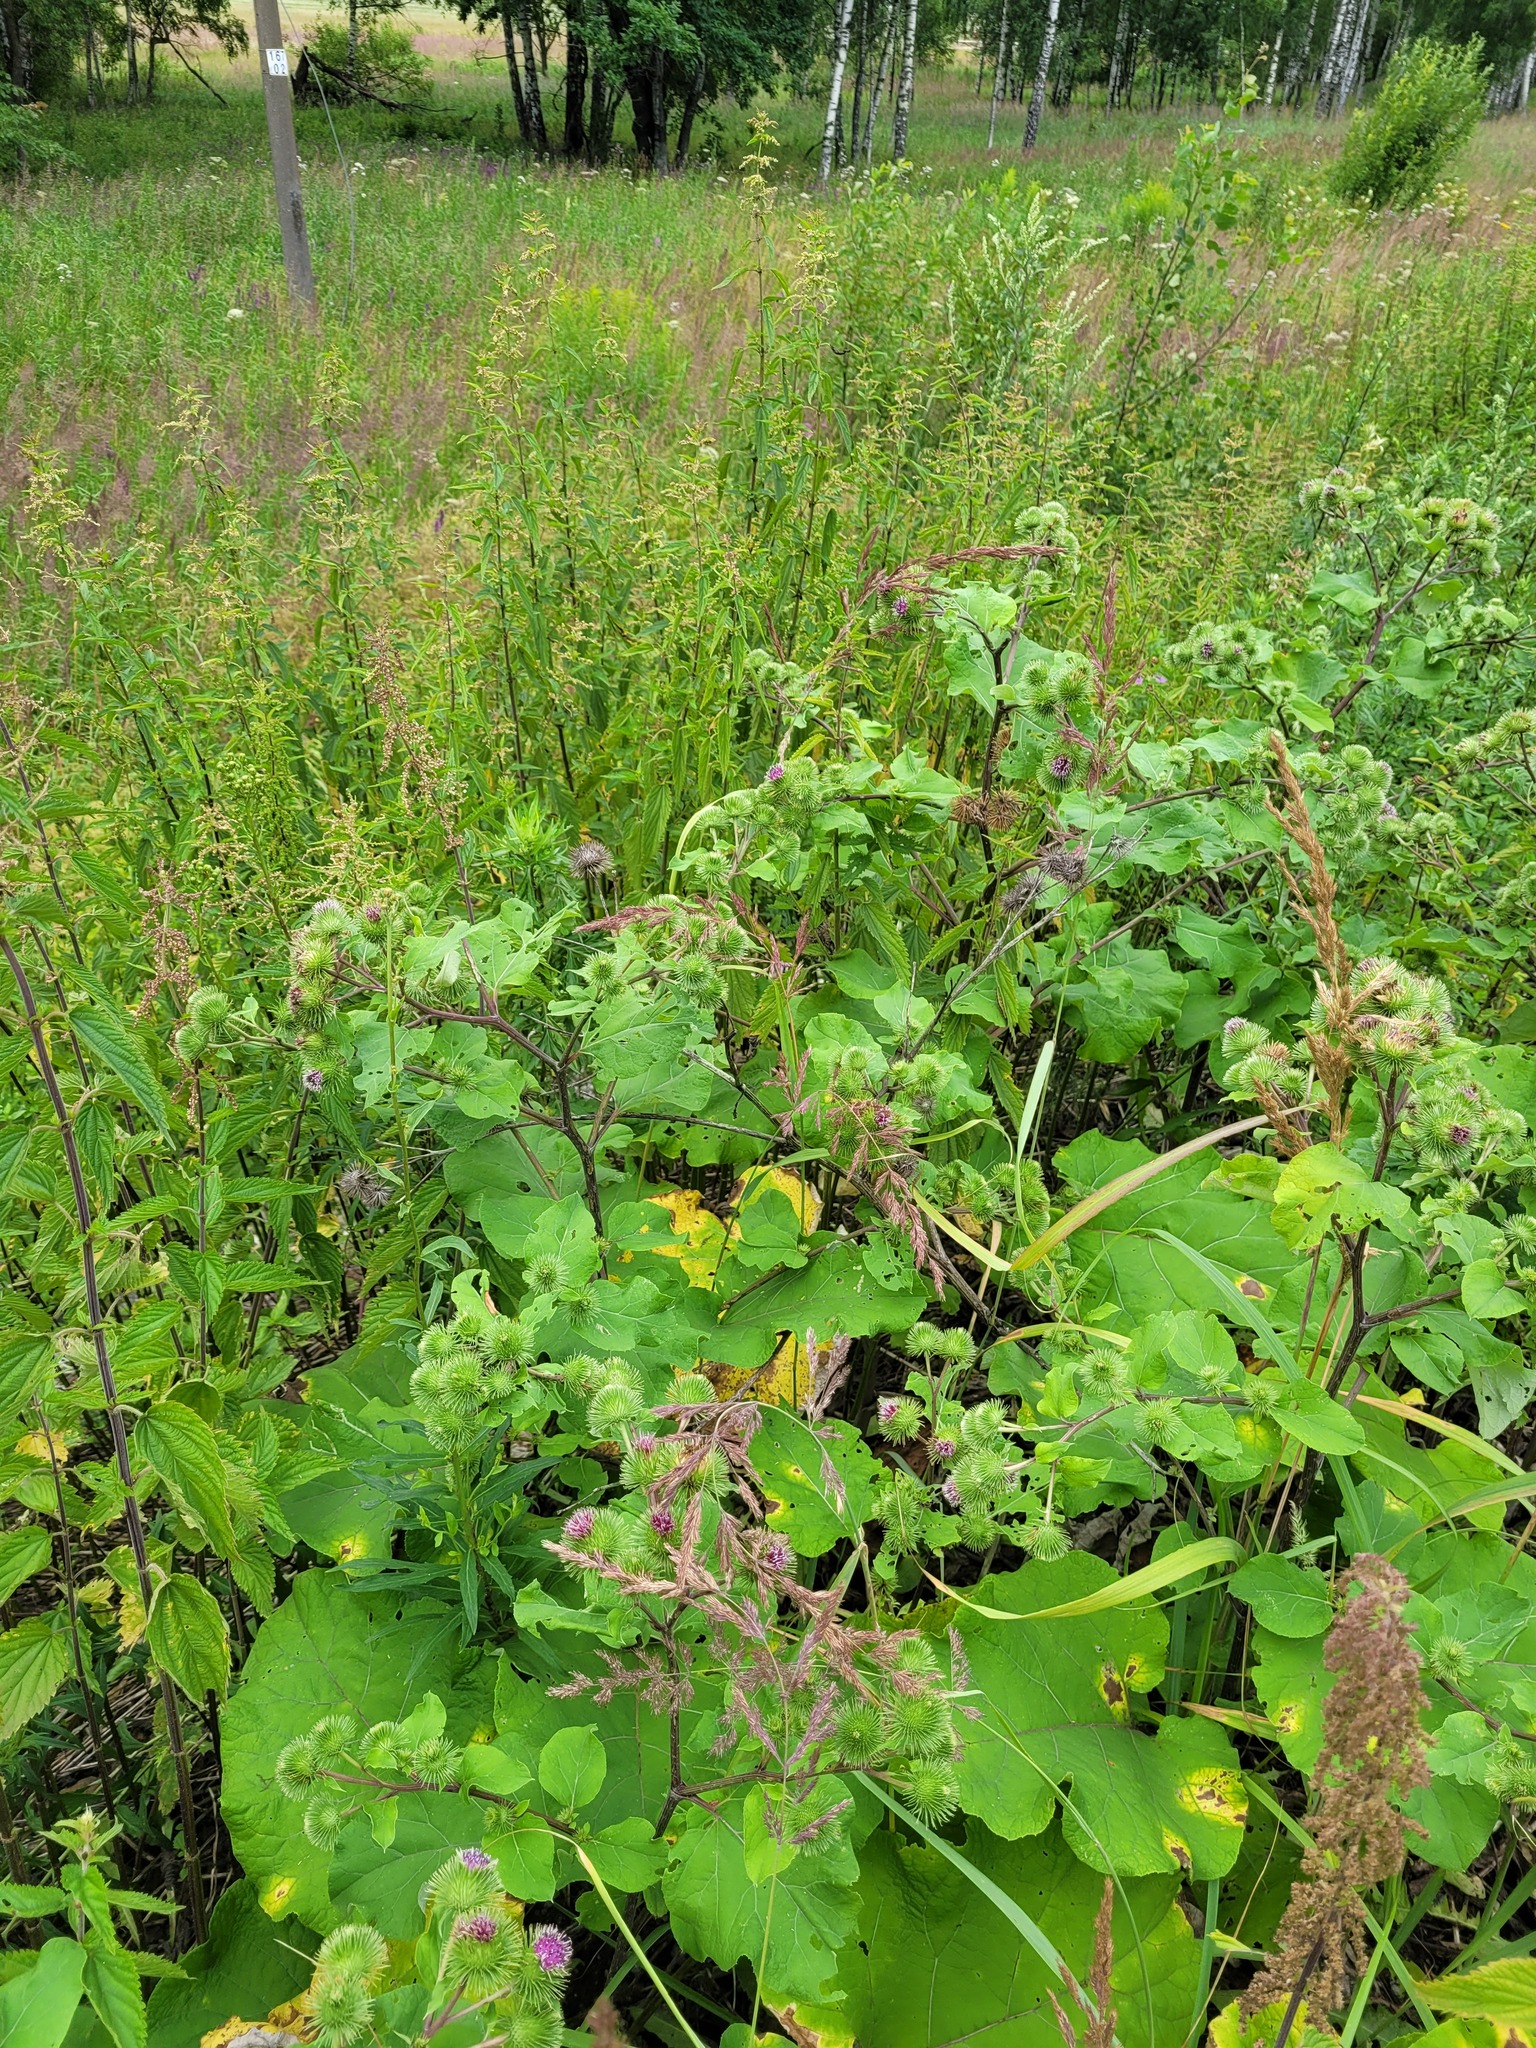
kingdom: Plantae
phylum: Tracheophyta
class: Magnoliopsida
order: Asterales
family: Asteraceae
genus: Arctium
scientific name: Arctium lappa
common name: Greater burdock
